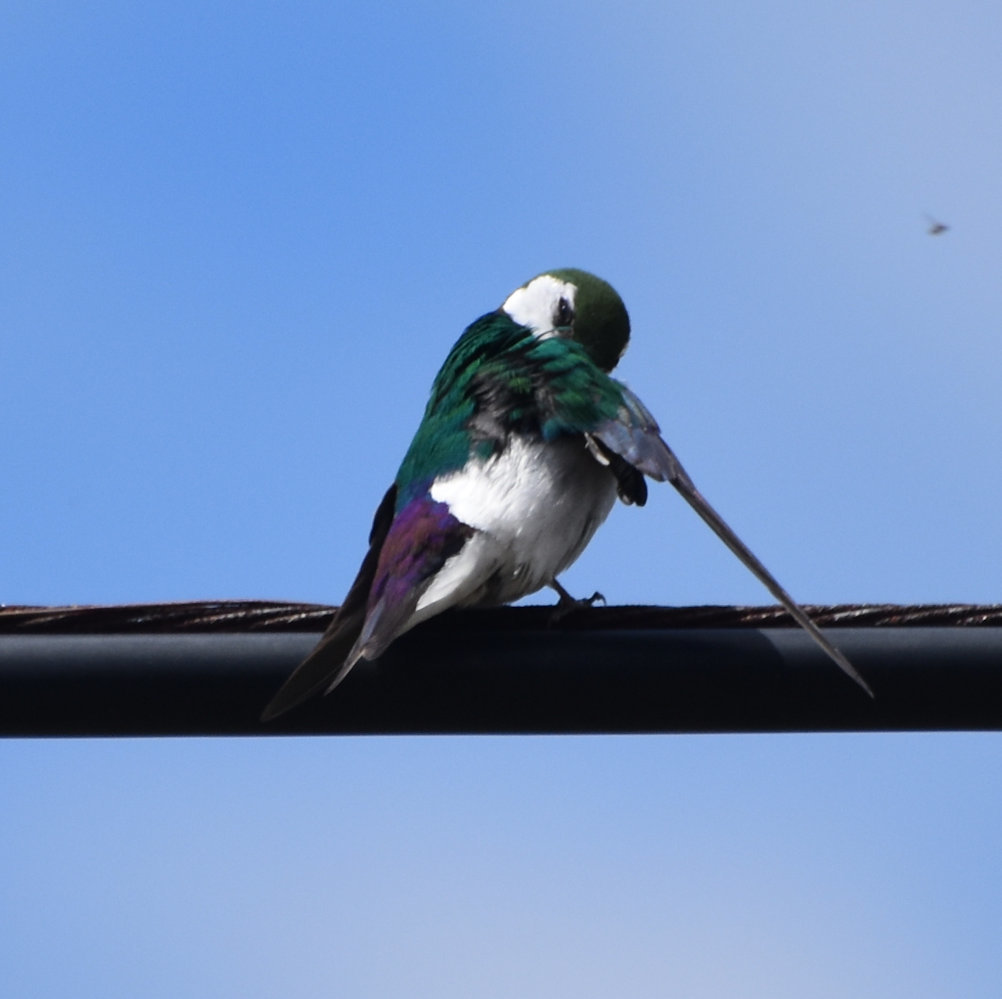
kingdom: Animalia
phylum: Chordata
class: Aves
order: Passeriformes
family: Hirundinidae
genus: Tachycineta
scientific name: Tachycineta thalassina
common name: Violet-green swallow
